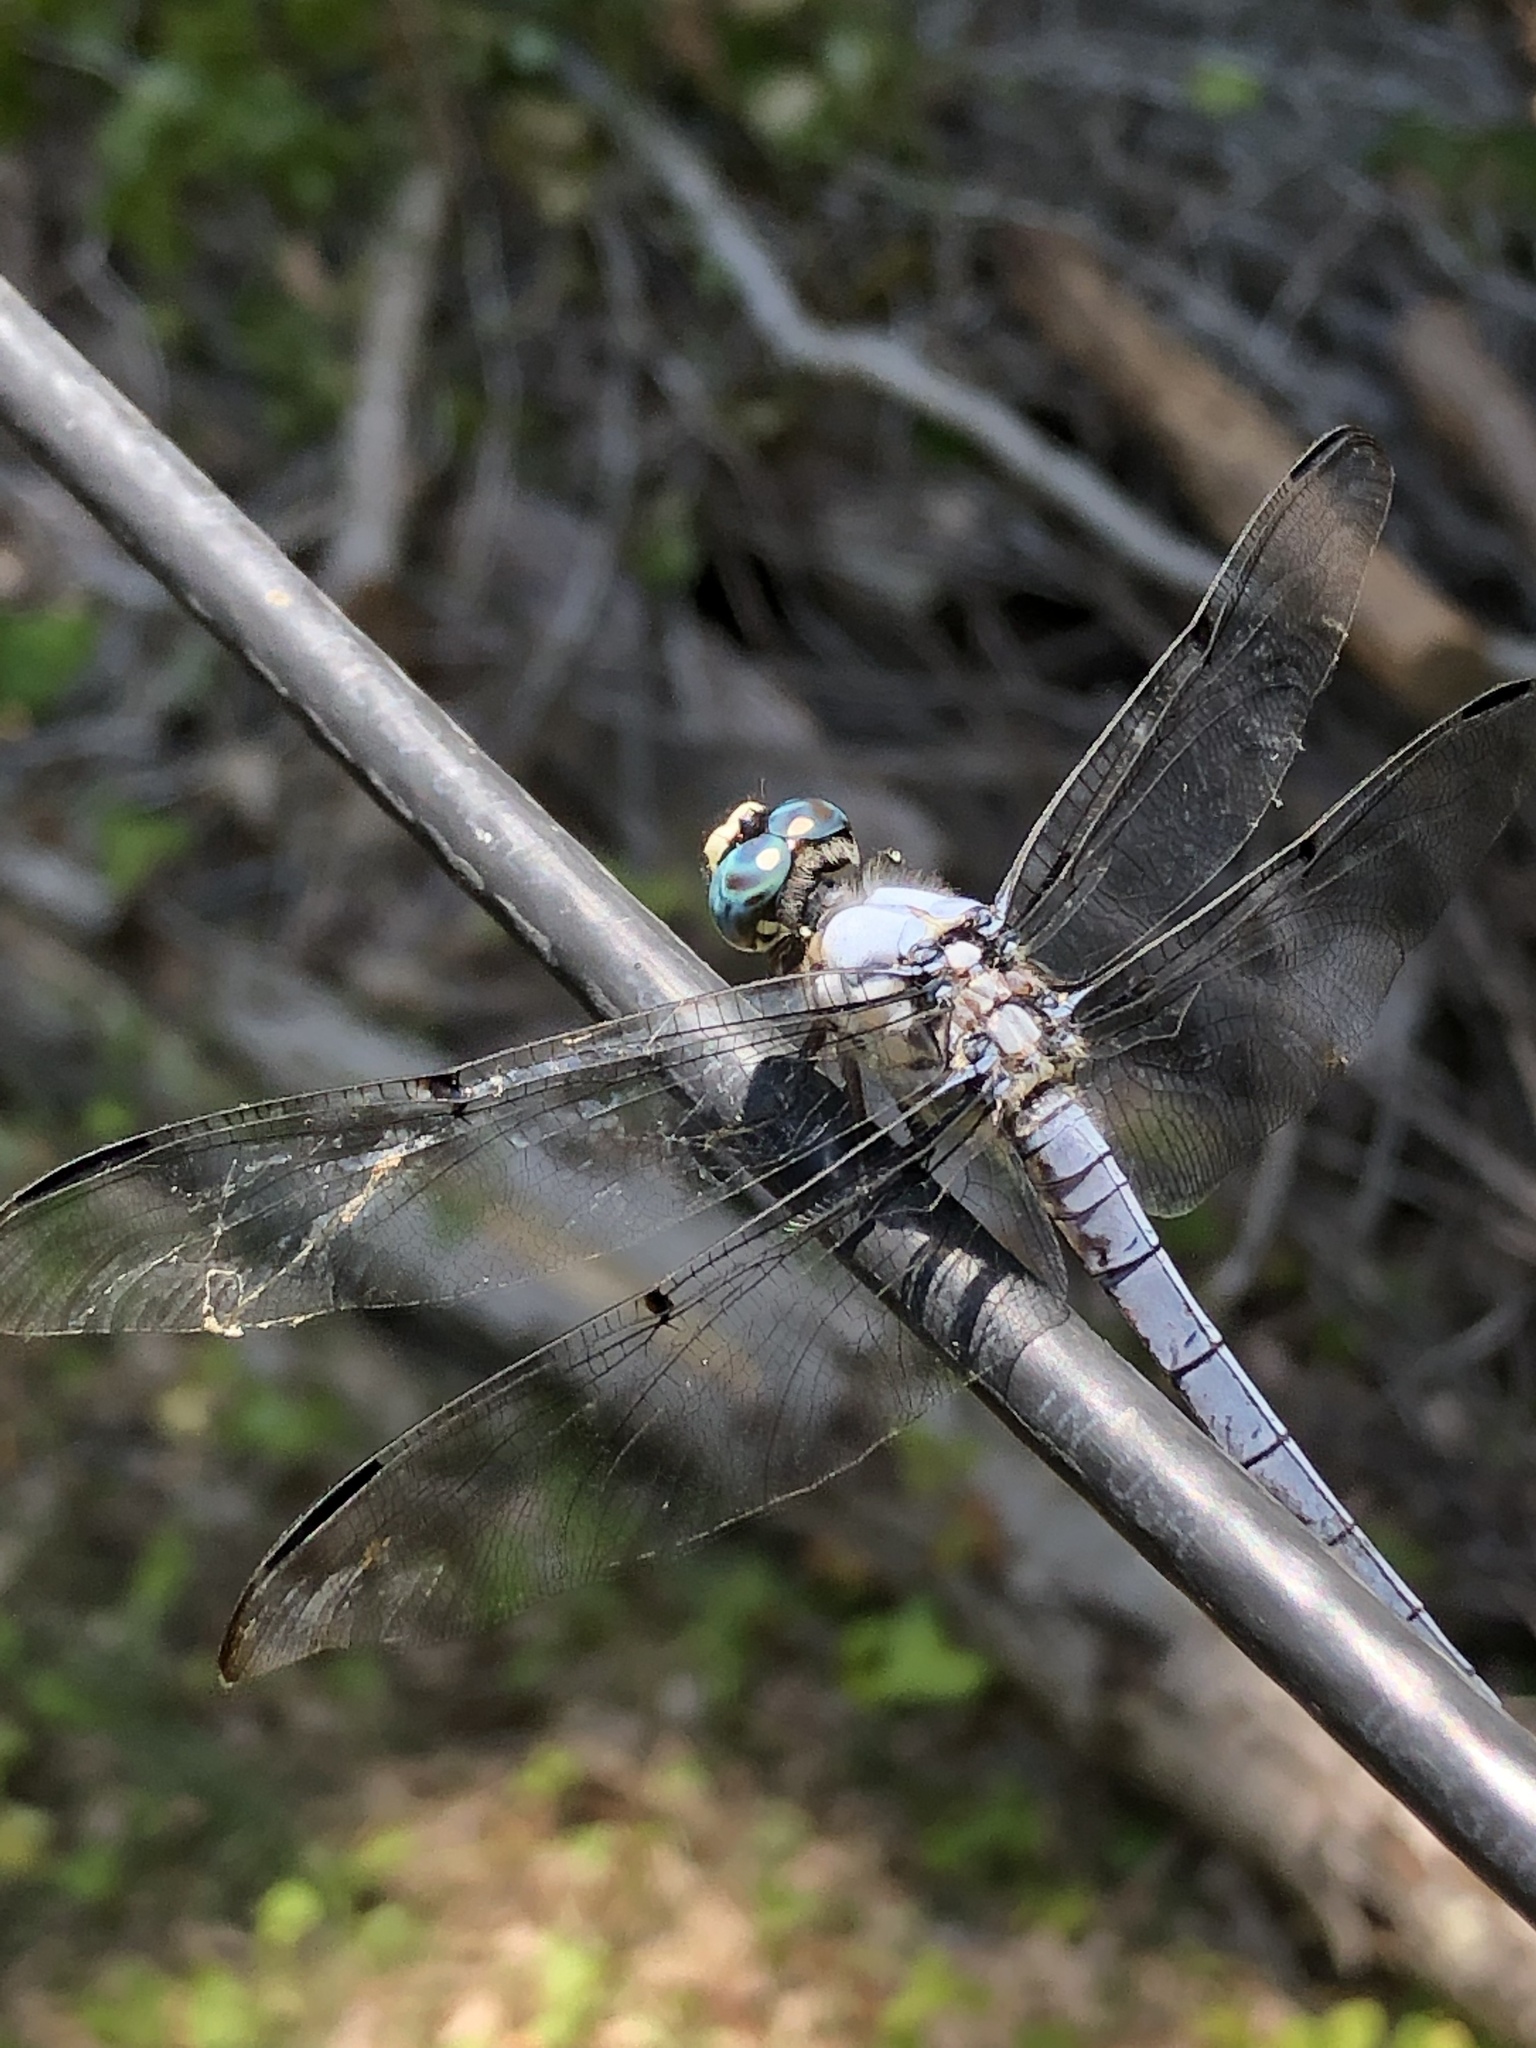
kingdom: Animalia
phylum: Arthropoda
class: Insecta
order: Odonata
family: Libellulidae
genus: Libellula
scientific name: Libellula vibrans
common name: Great blue skimmer
